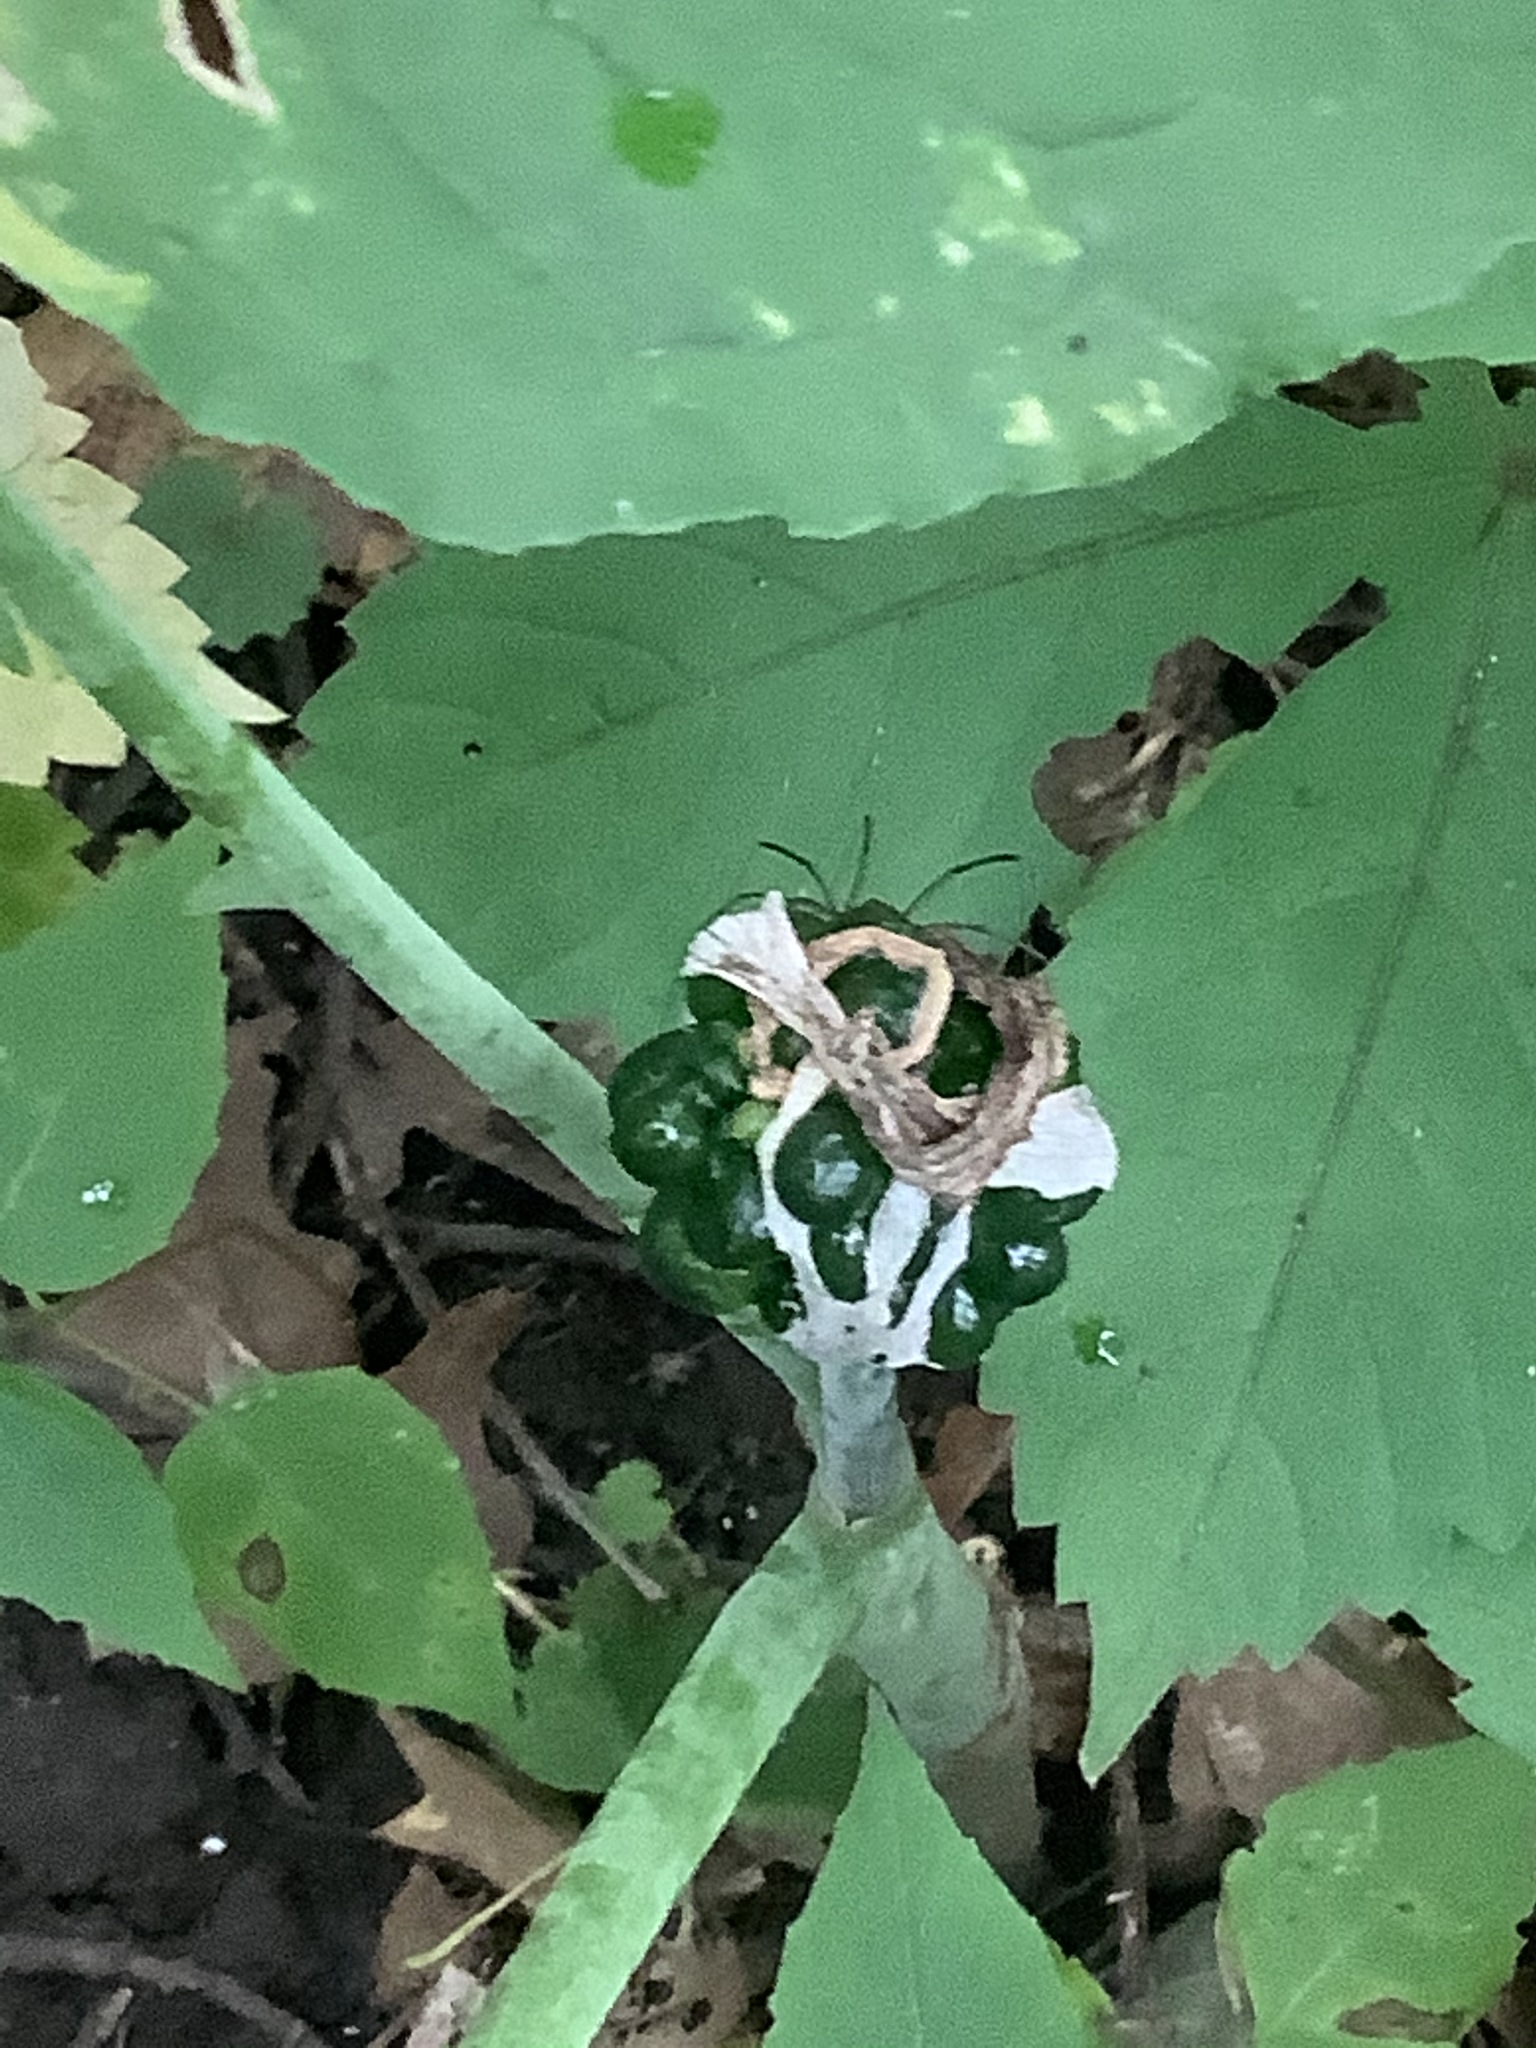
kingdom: Plantae
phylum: Tracheophyta
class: Liliopsida
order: Alismatales
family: Araceae
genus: Arisaema
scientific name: Arisaema triphyllum
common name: Jack-in-the-pulpit
